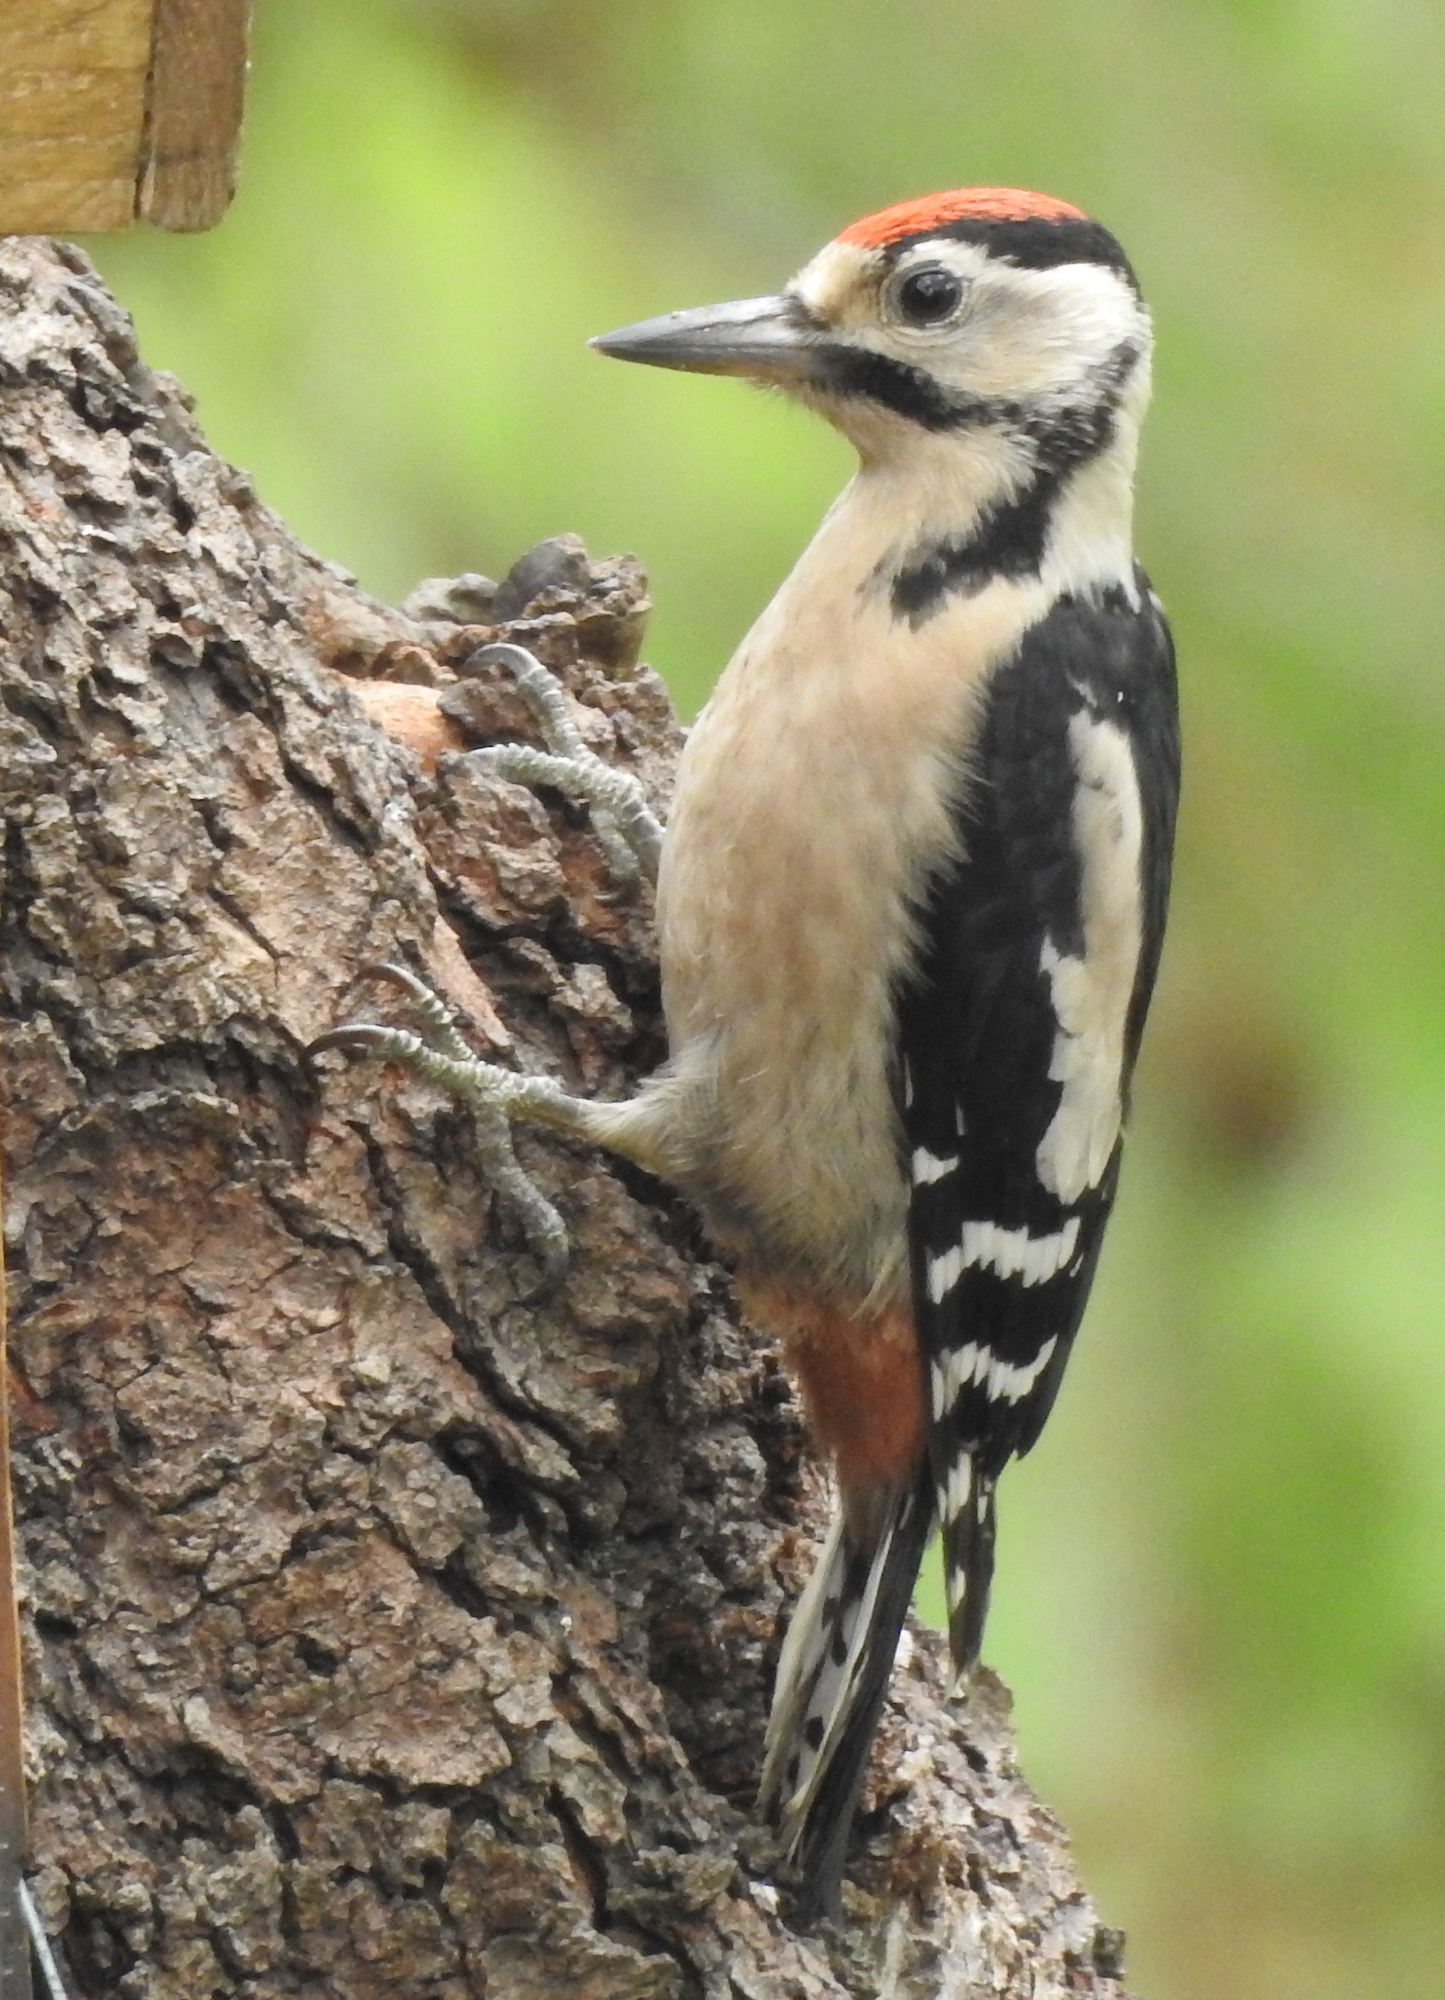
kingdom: Animalia
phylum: Chordata
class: Aves
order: Piciformes
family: Picidae
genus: Dendrocopos
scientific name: Dendrocopos major
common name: Great spotted woodpecker
